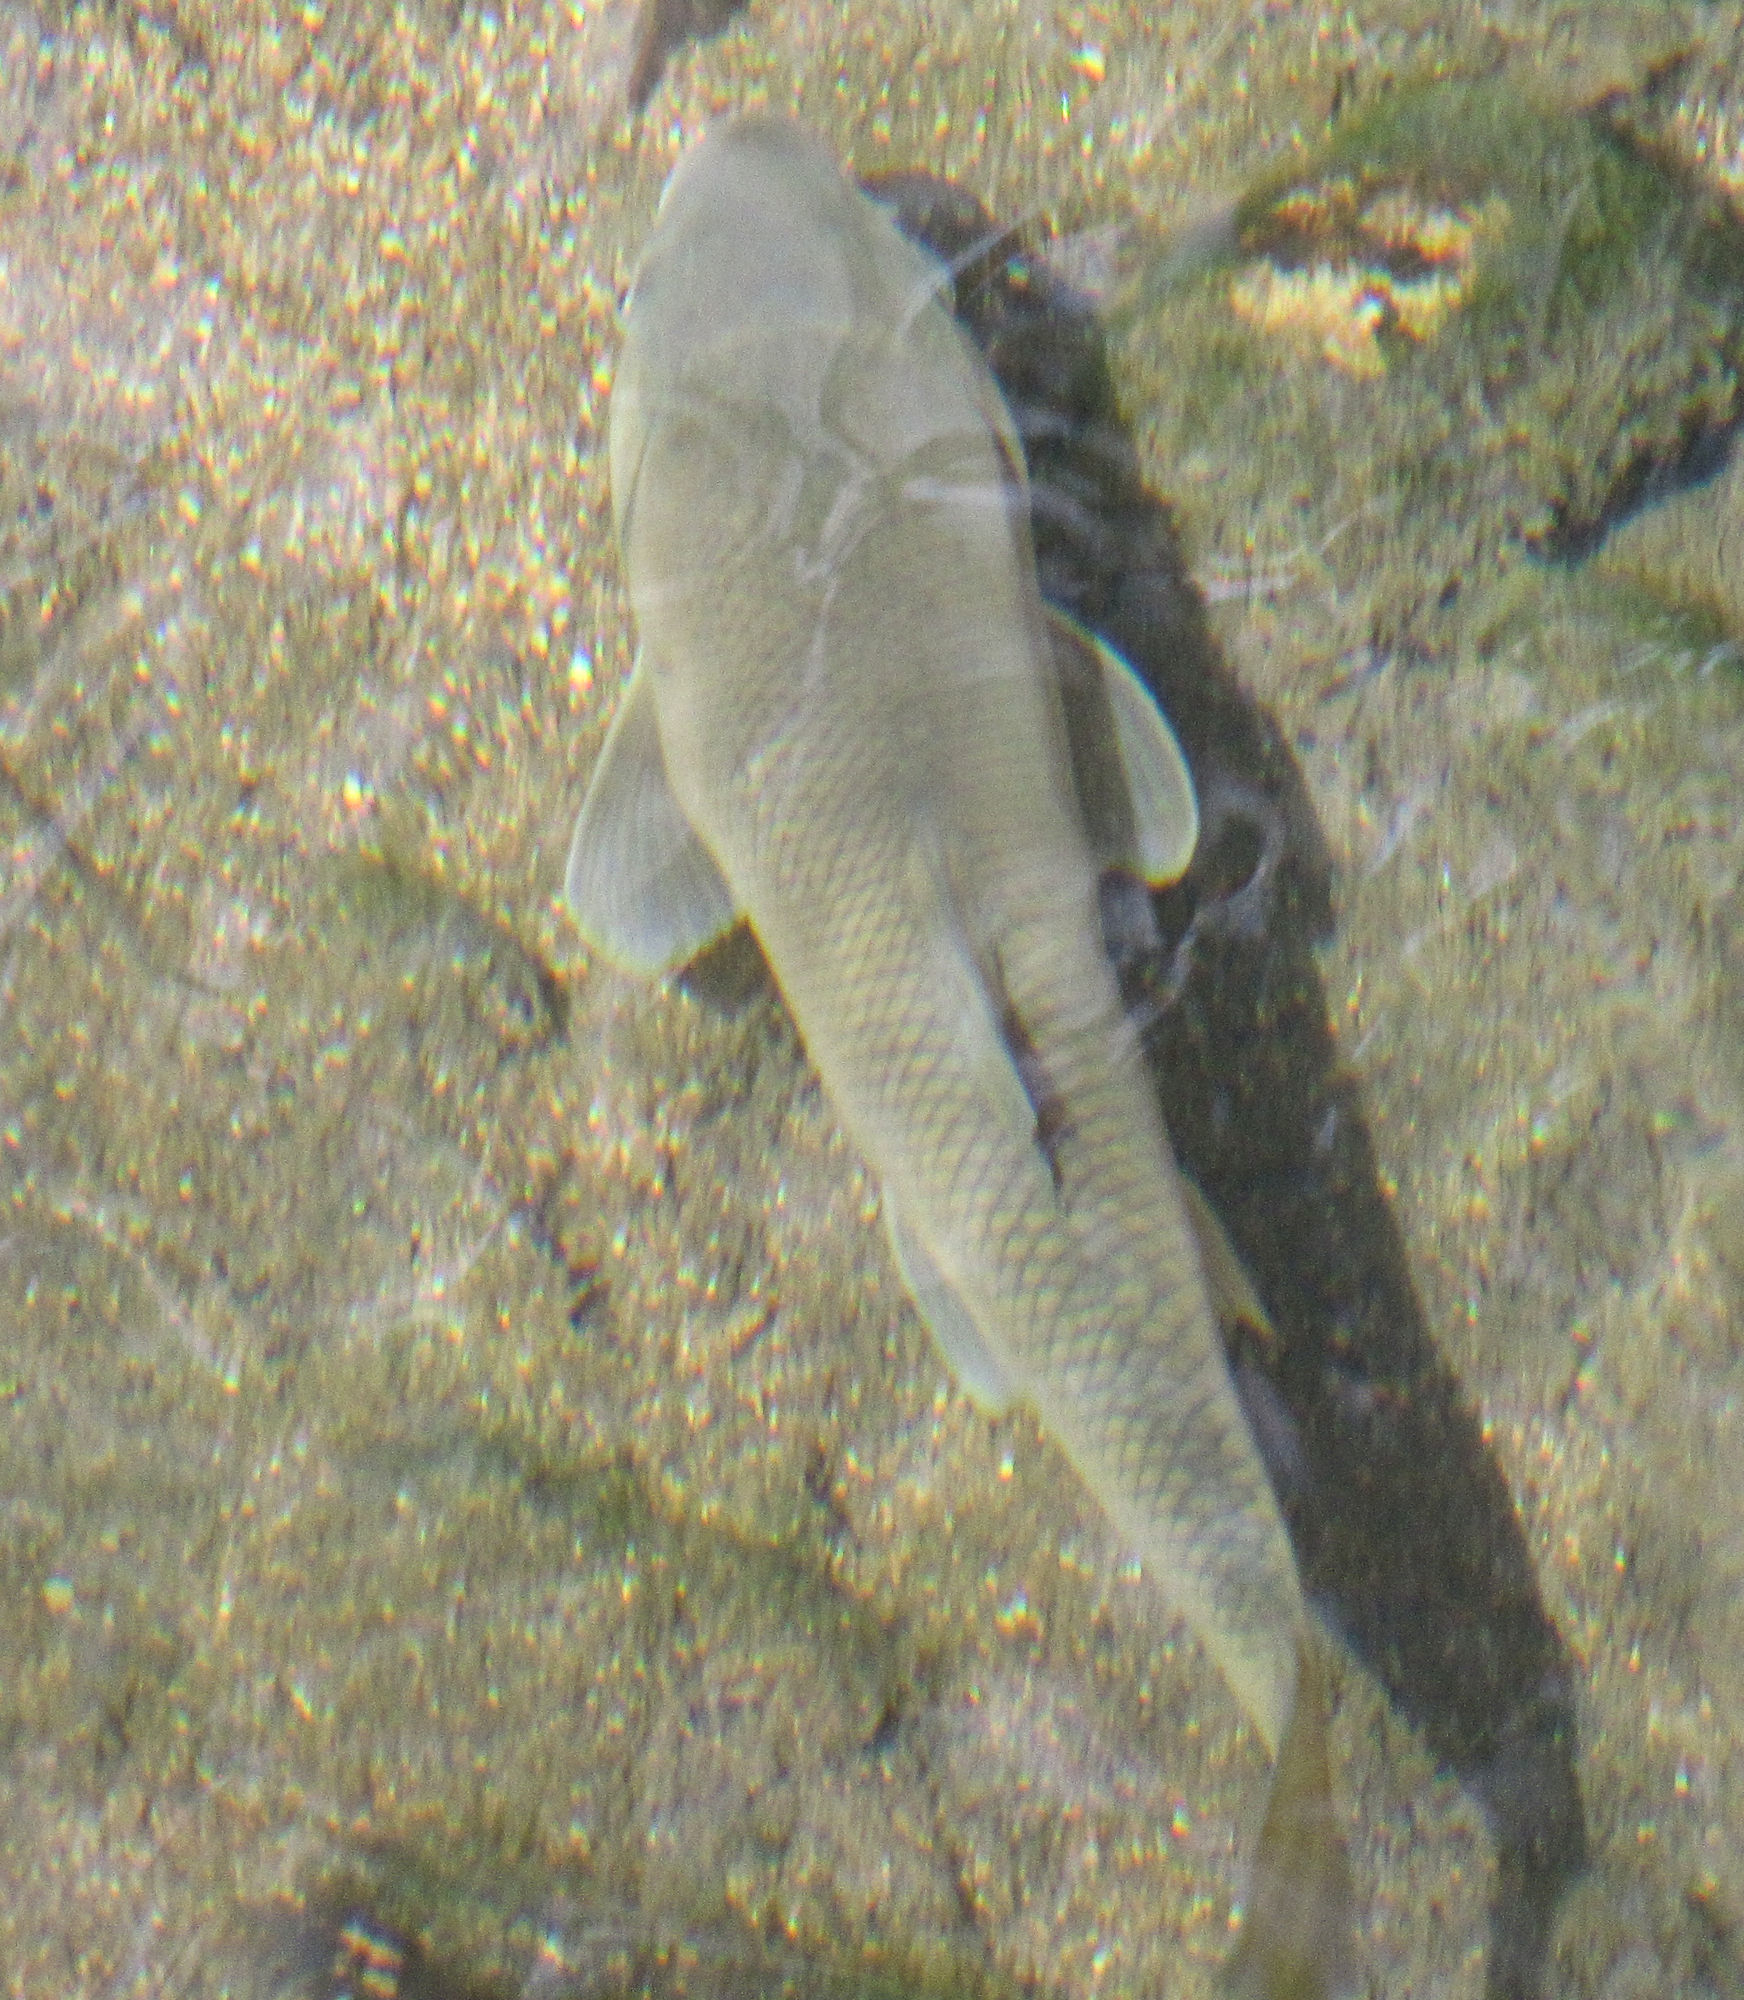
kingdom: Animalia
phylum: Chordata
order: Cypriniformes
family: Catostomidae
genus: Catostomus
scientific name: Catostomus insignis
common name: Sonora sucker
